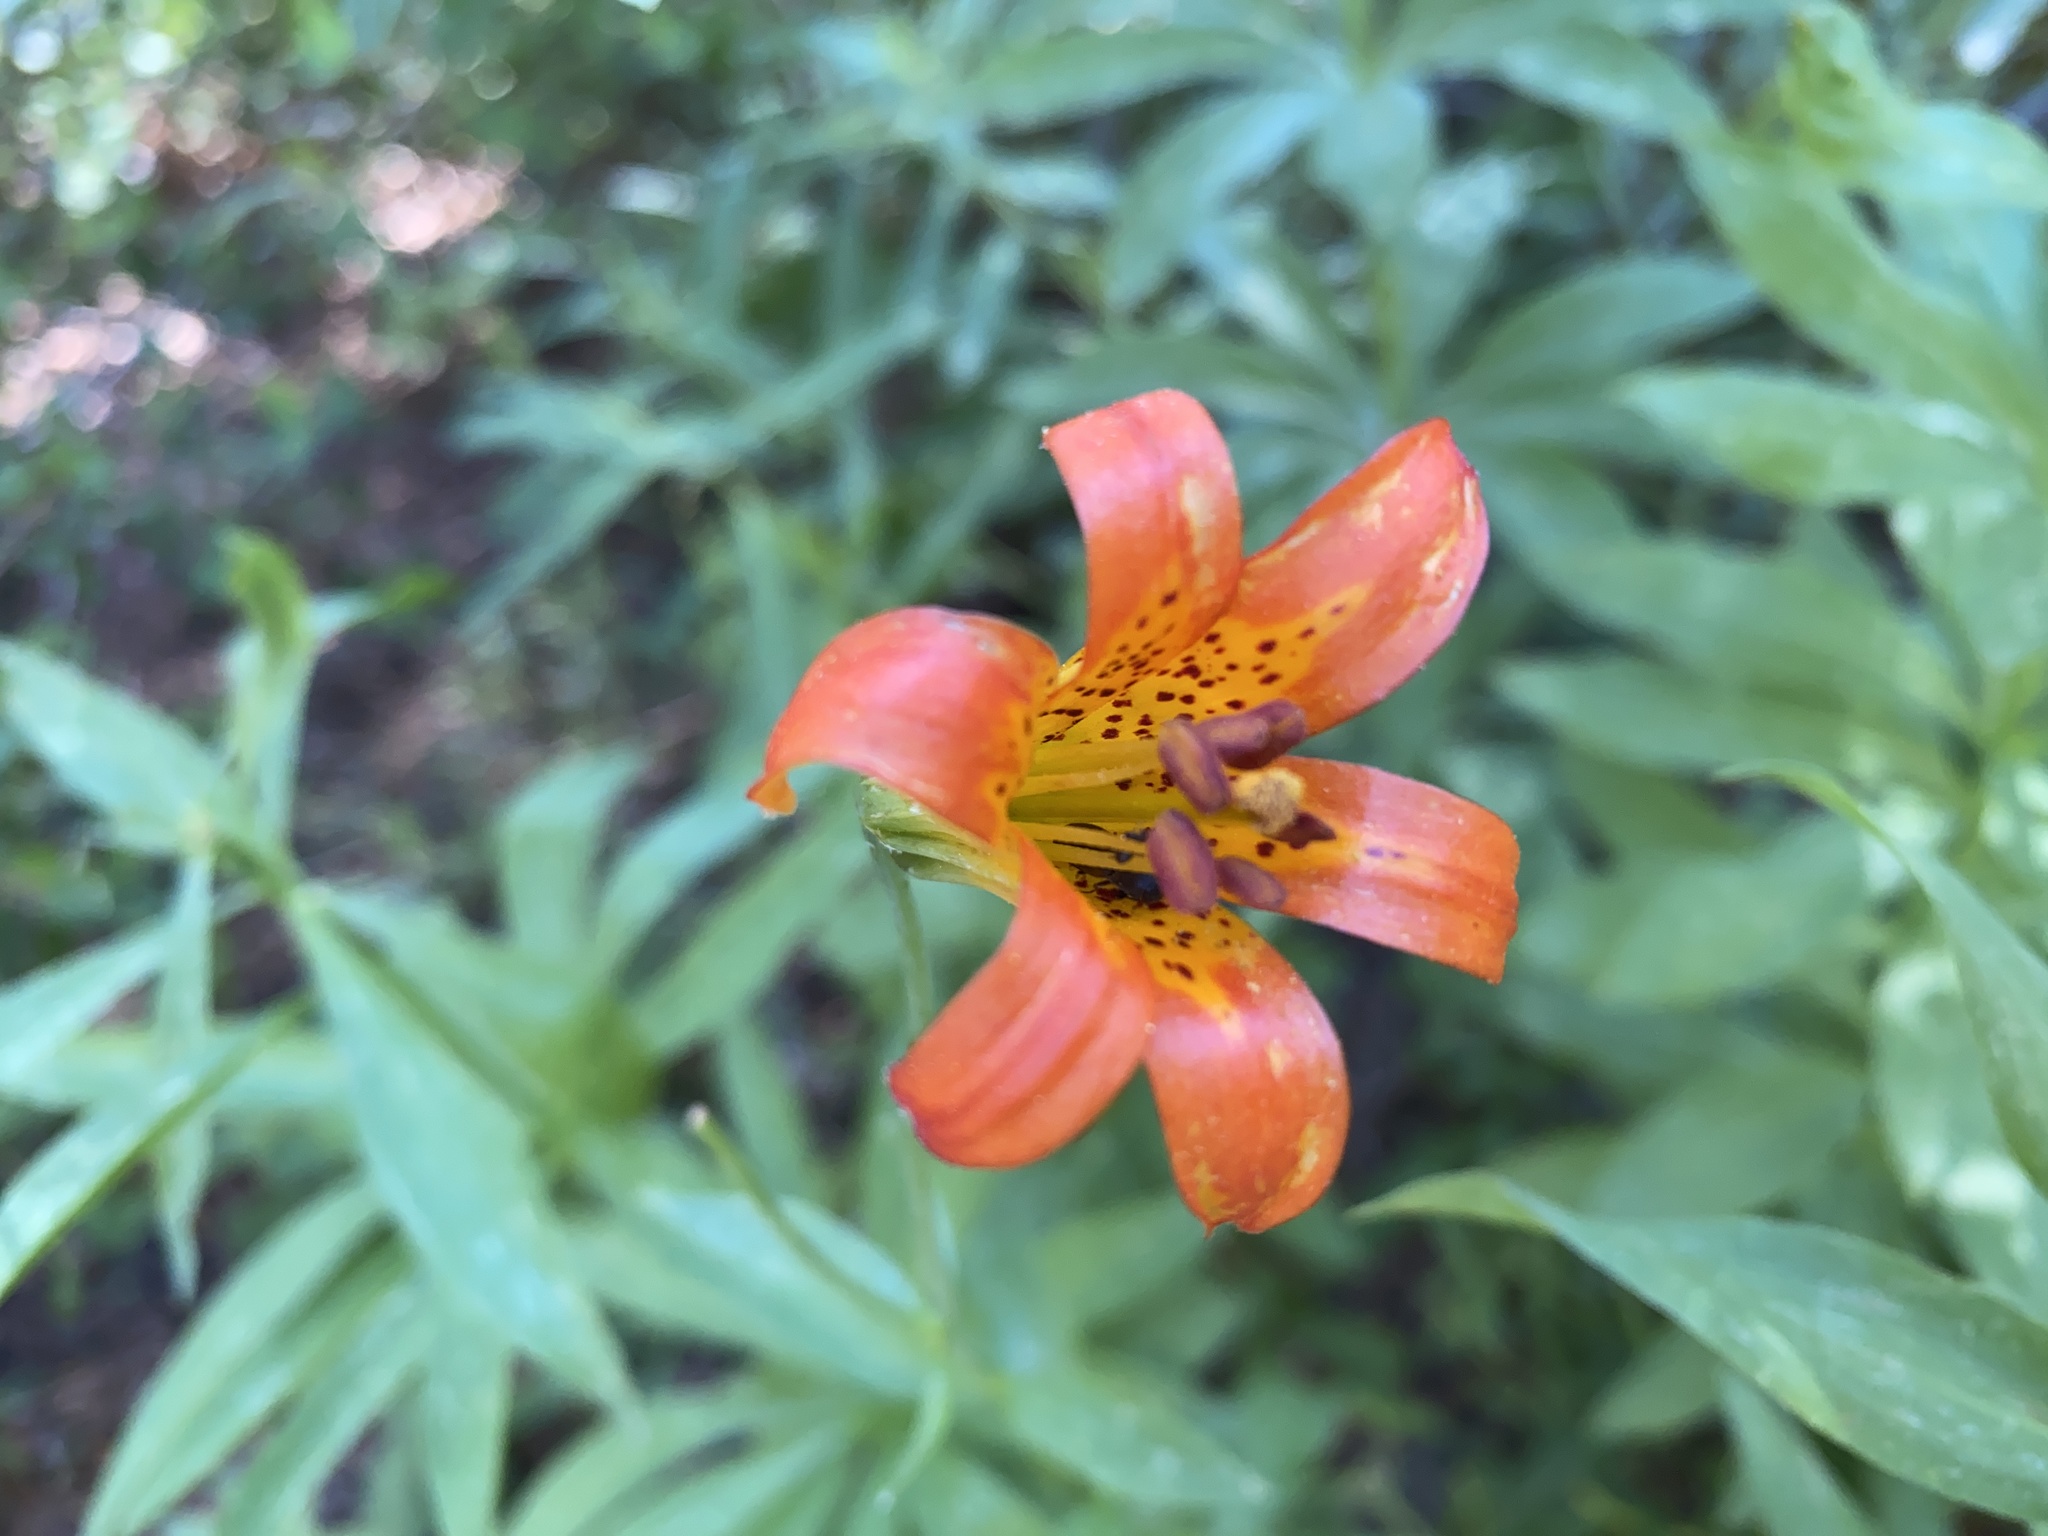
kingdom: Plantae
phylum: Tracheophyta
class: Liliopsida
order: Liliales
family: Liliaceae
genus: Lilium
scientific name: Lilium parvum
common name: Alpine lily
